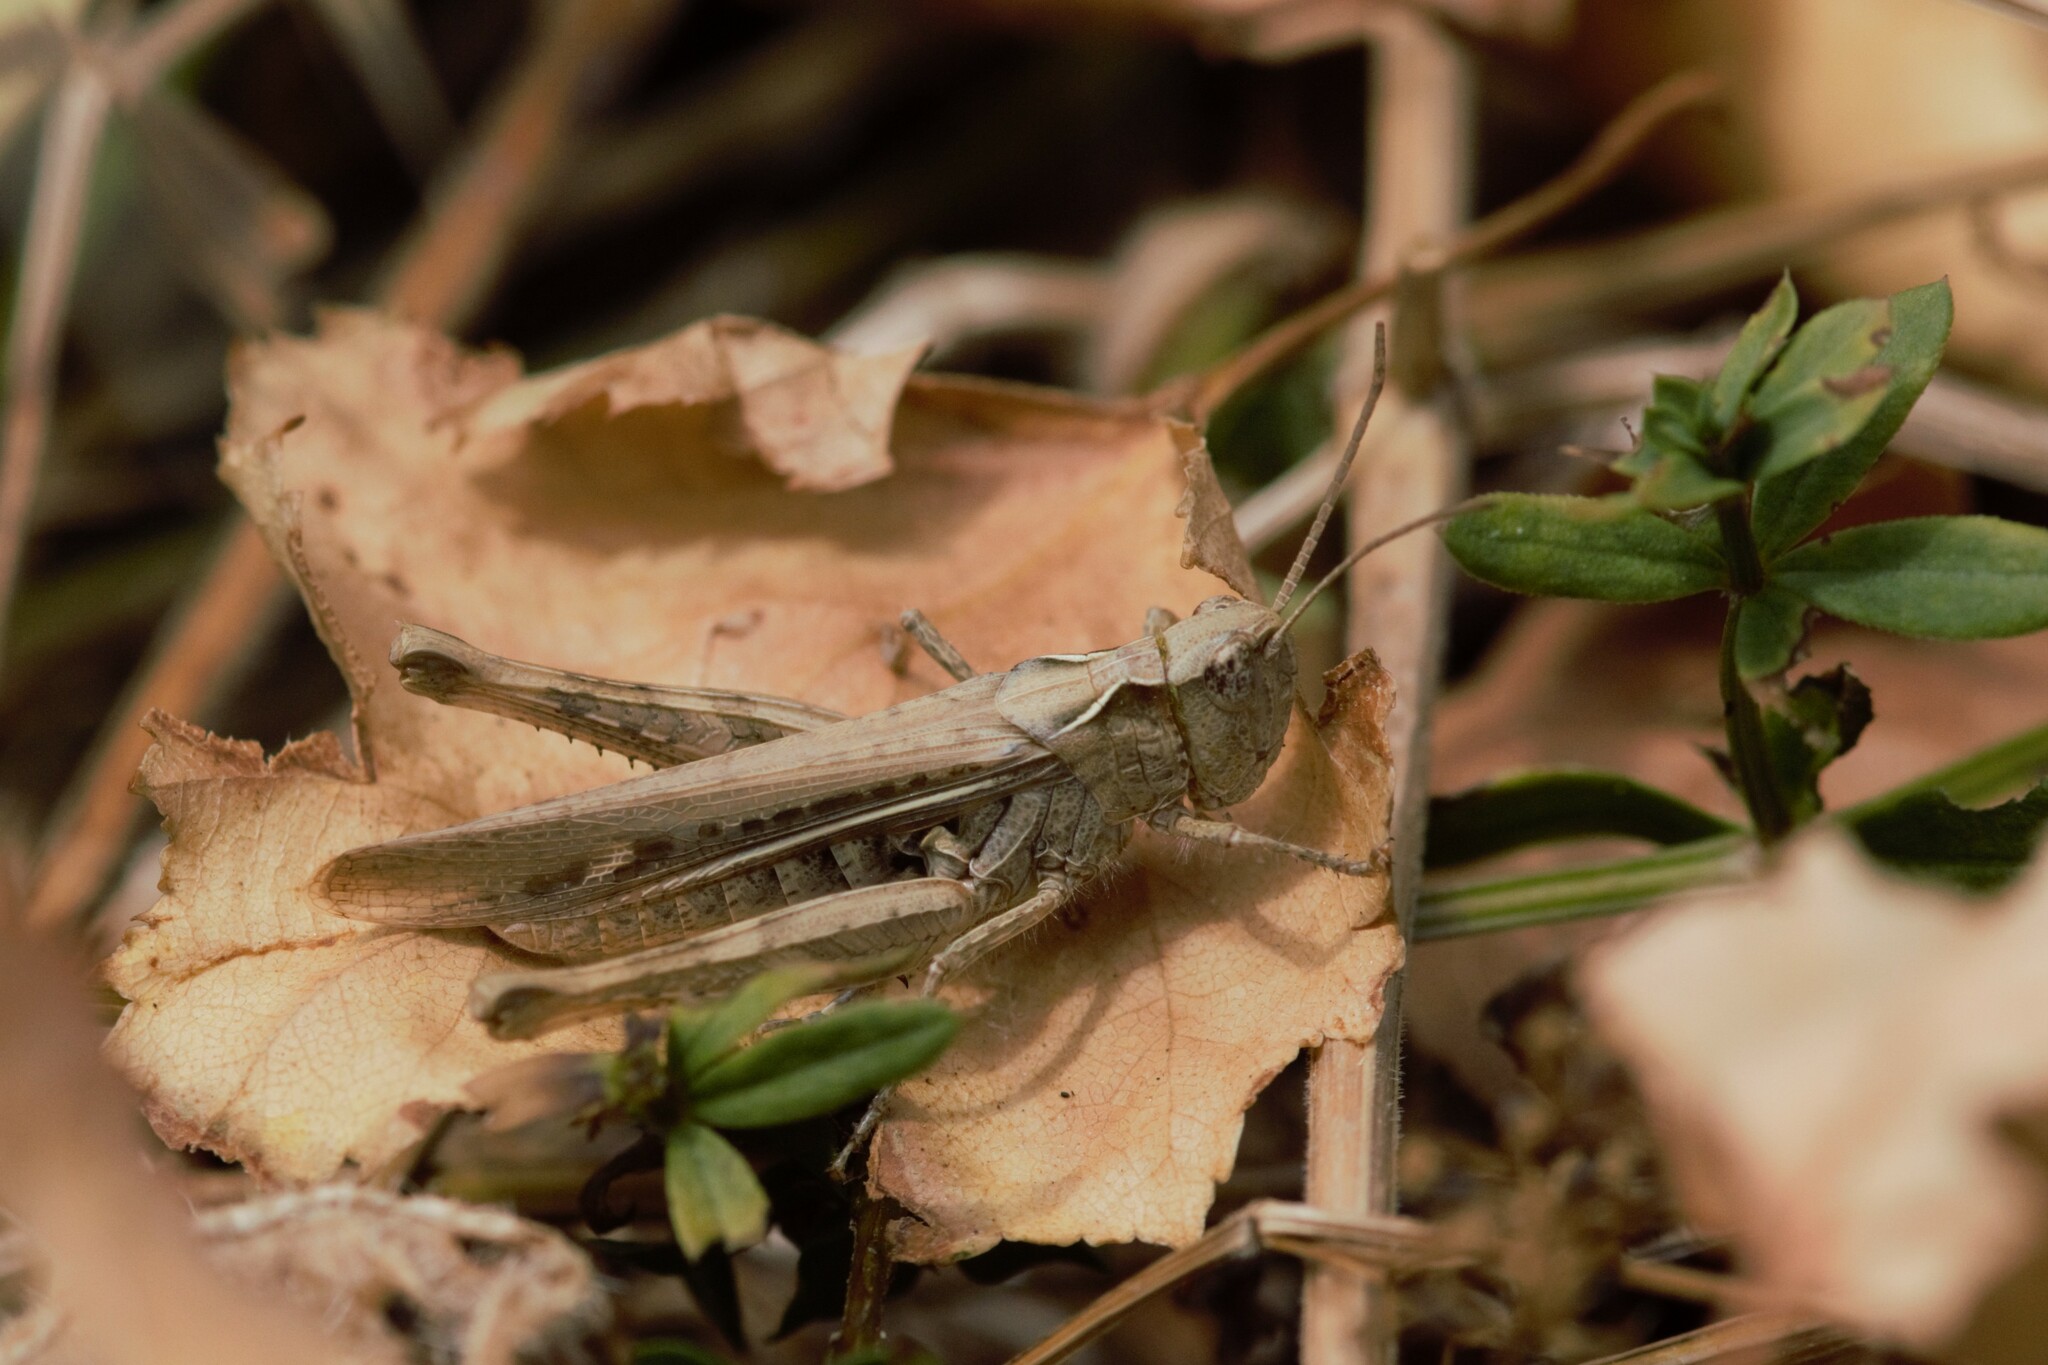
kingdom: Animalia
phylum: Arthropoda
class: Insecta
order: Orthoptera
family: Acrididae
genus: Chorthippus
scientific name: Chorthippus brunneus
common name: Field grasshopper
